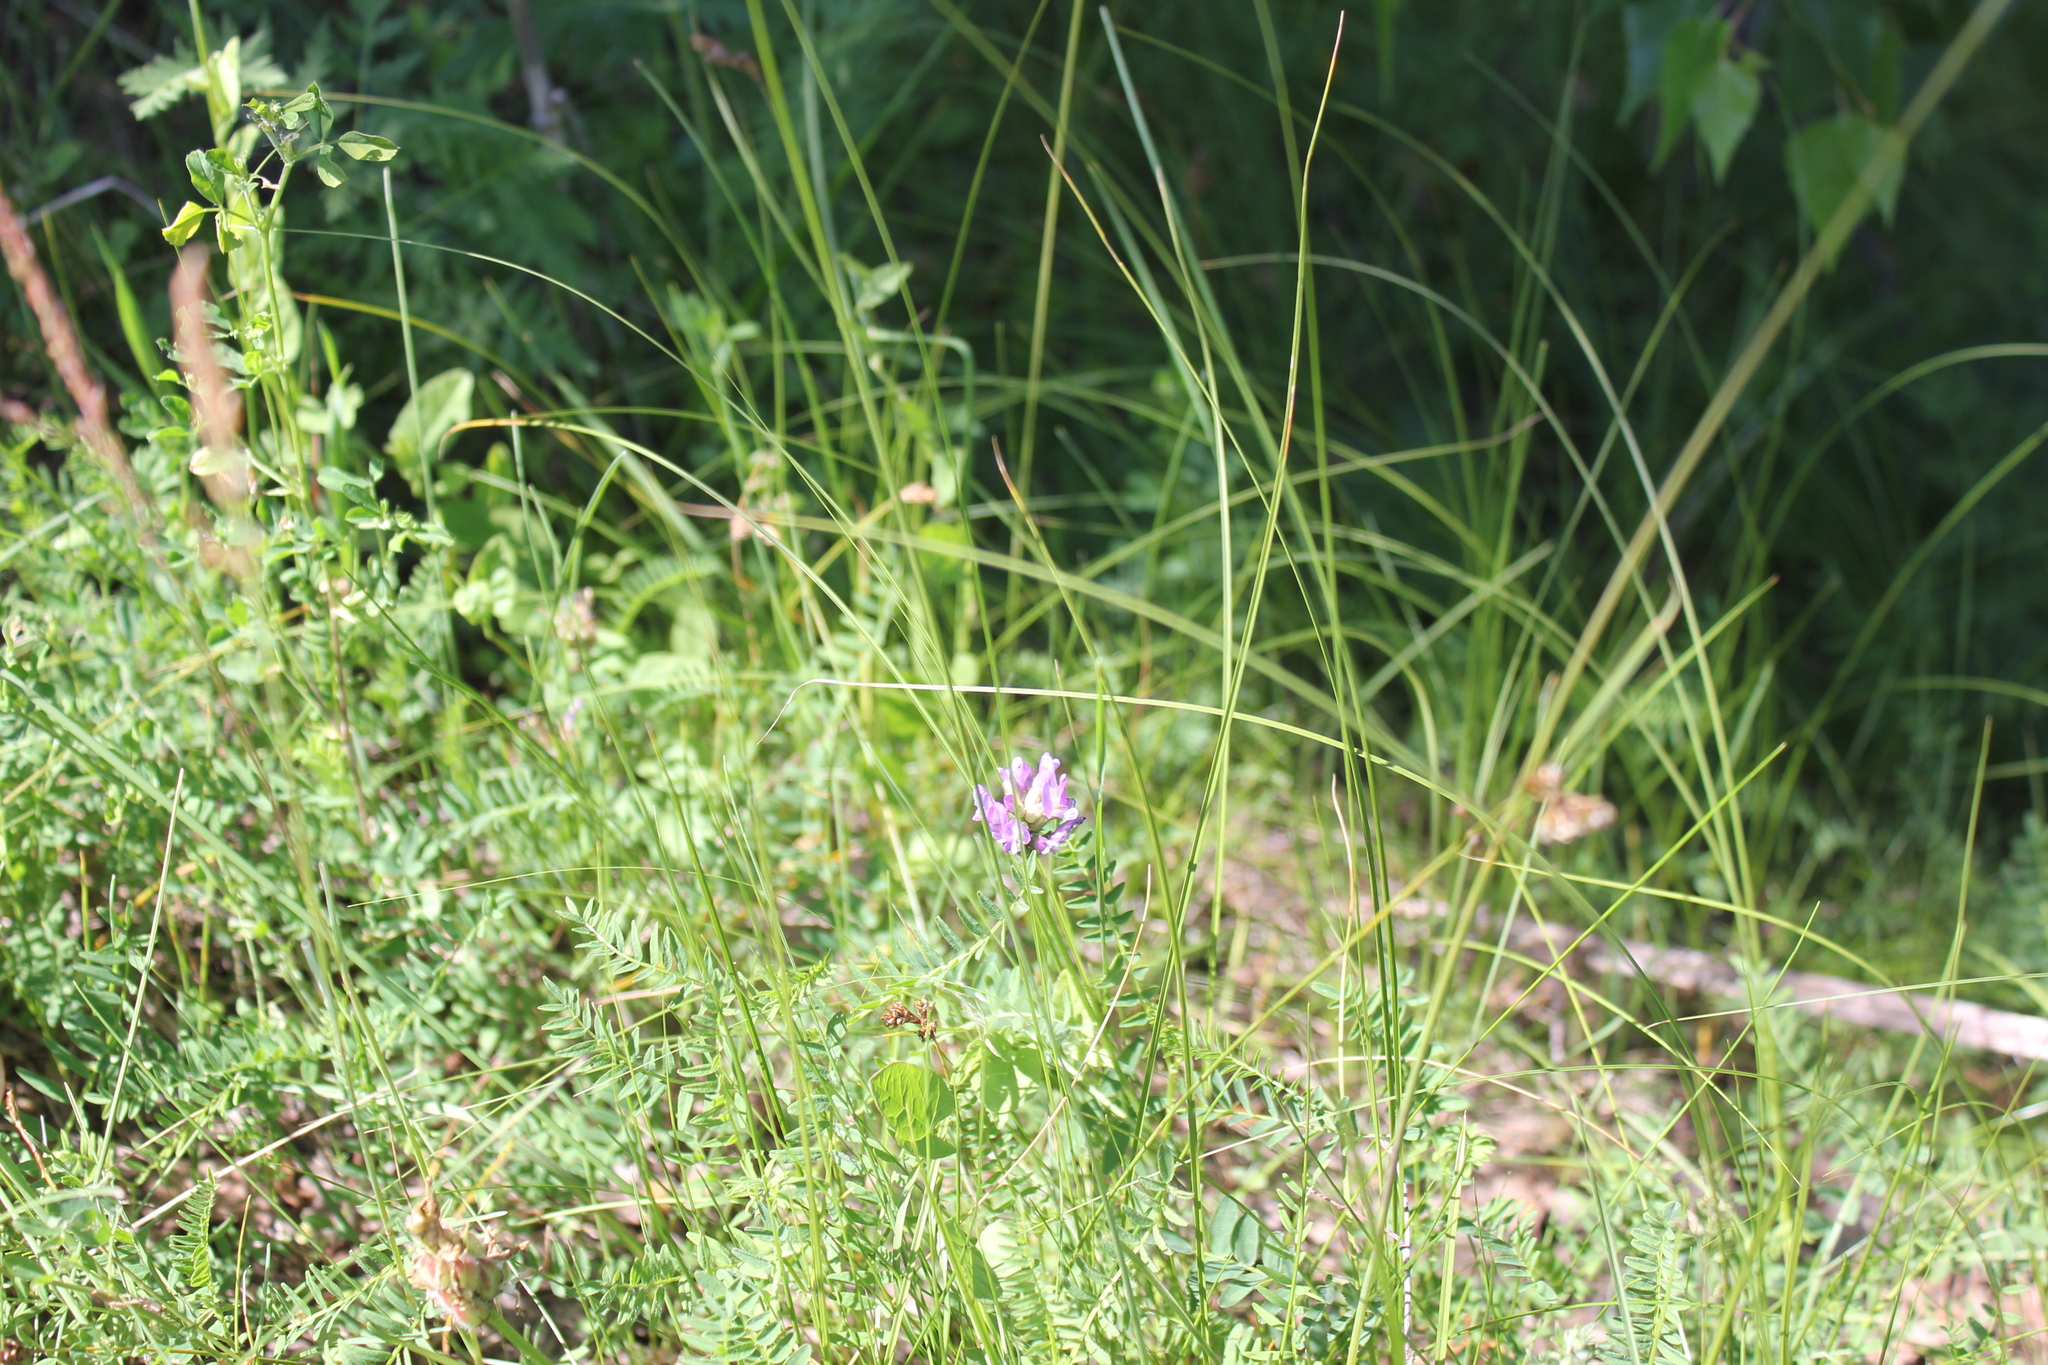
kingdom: Plantae
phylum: Tracheophyta
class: Magnoliopsida
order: Fabales
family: Fabaceae
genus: Astragalus
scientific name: Astragalus danicus
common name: Purple milk-vetch
